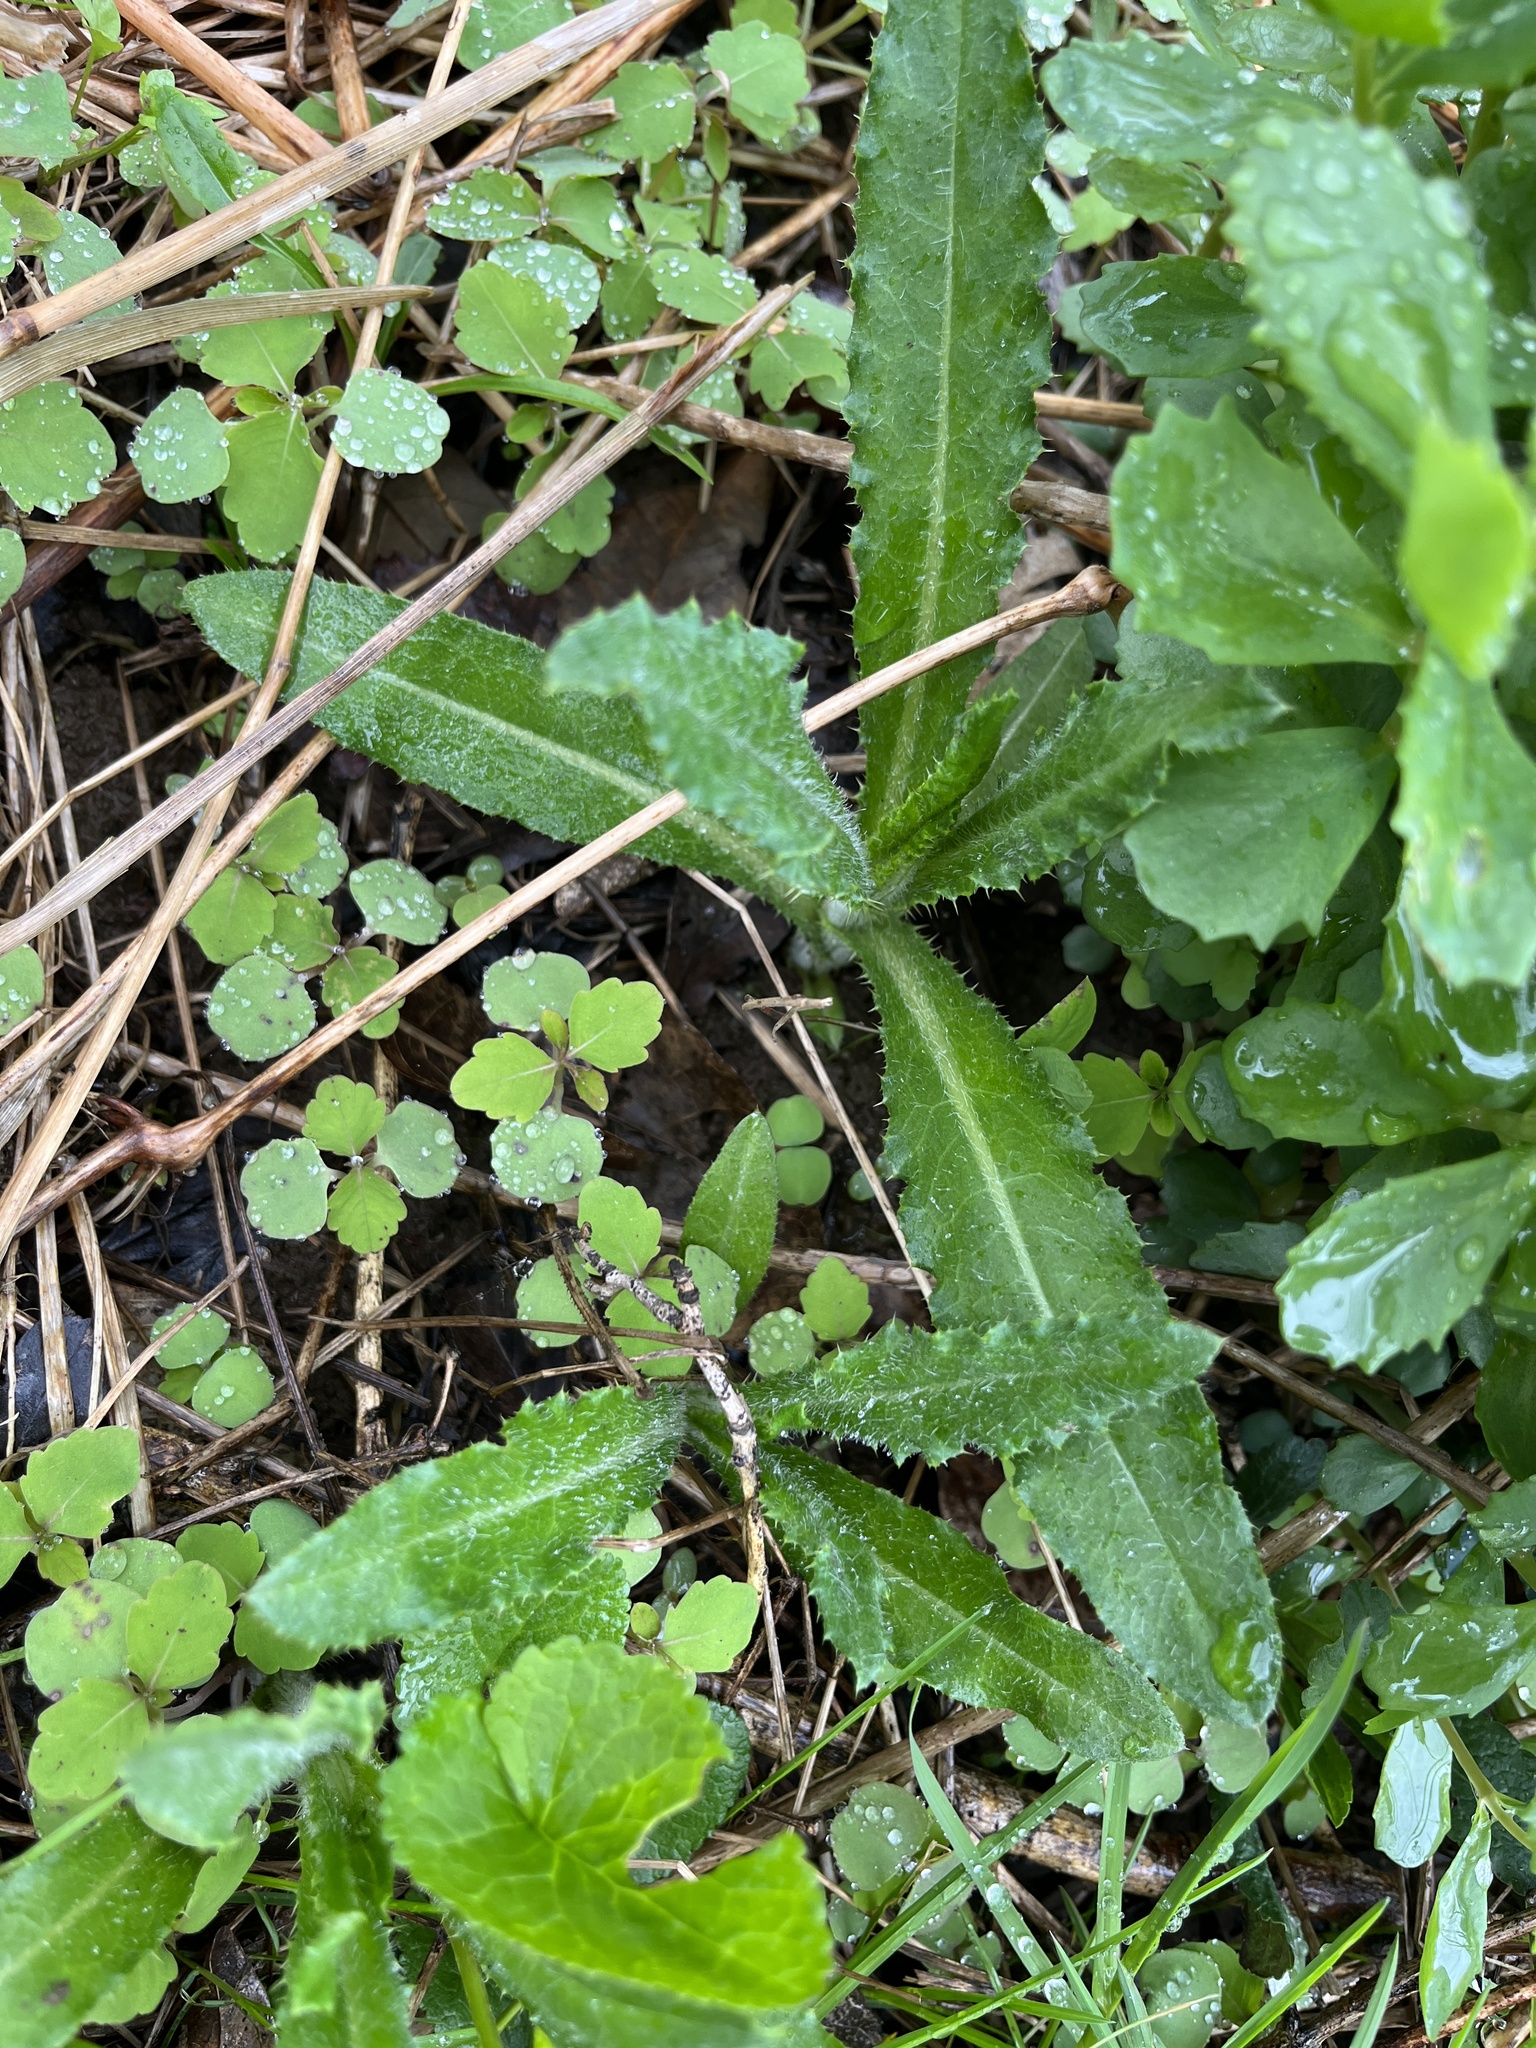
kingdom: Plantae
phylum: Tracheophyta
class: Magnoliopsida
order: Asterales
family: Asteraceae
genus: Cirsium
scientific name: Cirsium arvense
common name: Creeping thistle
